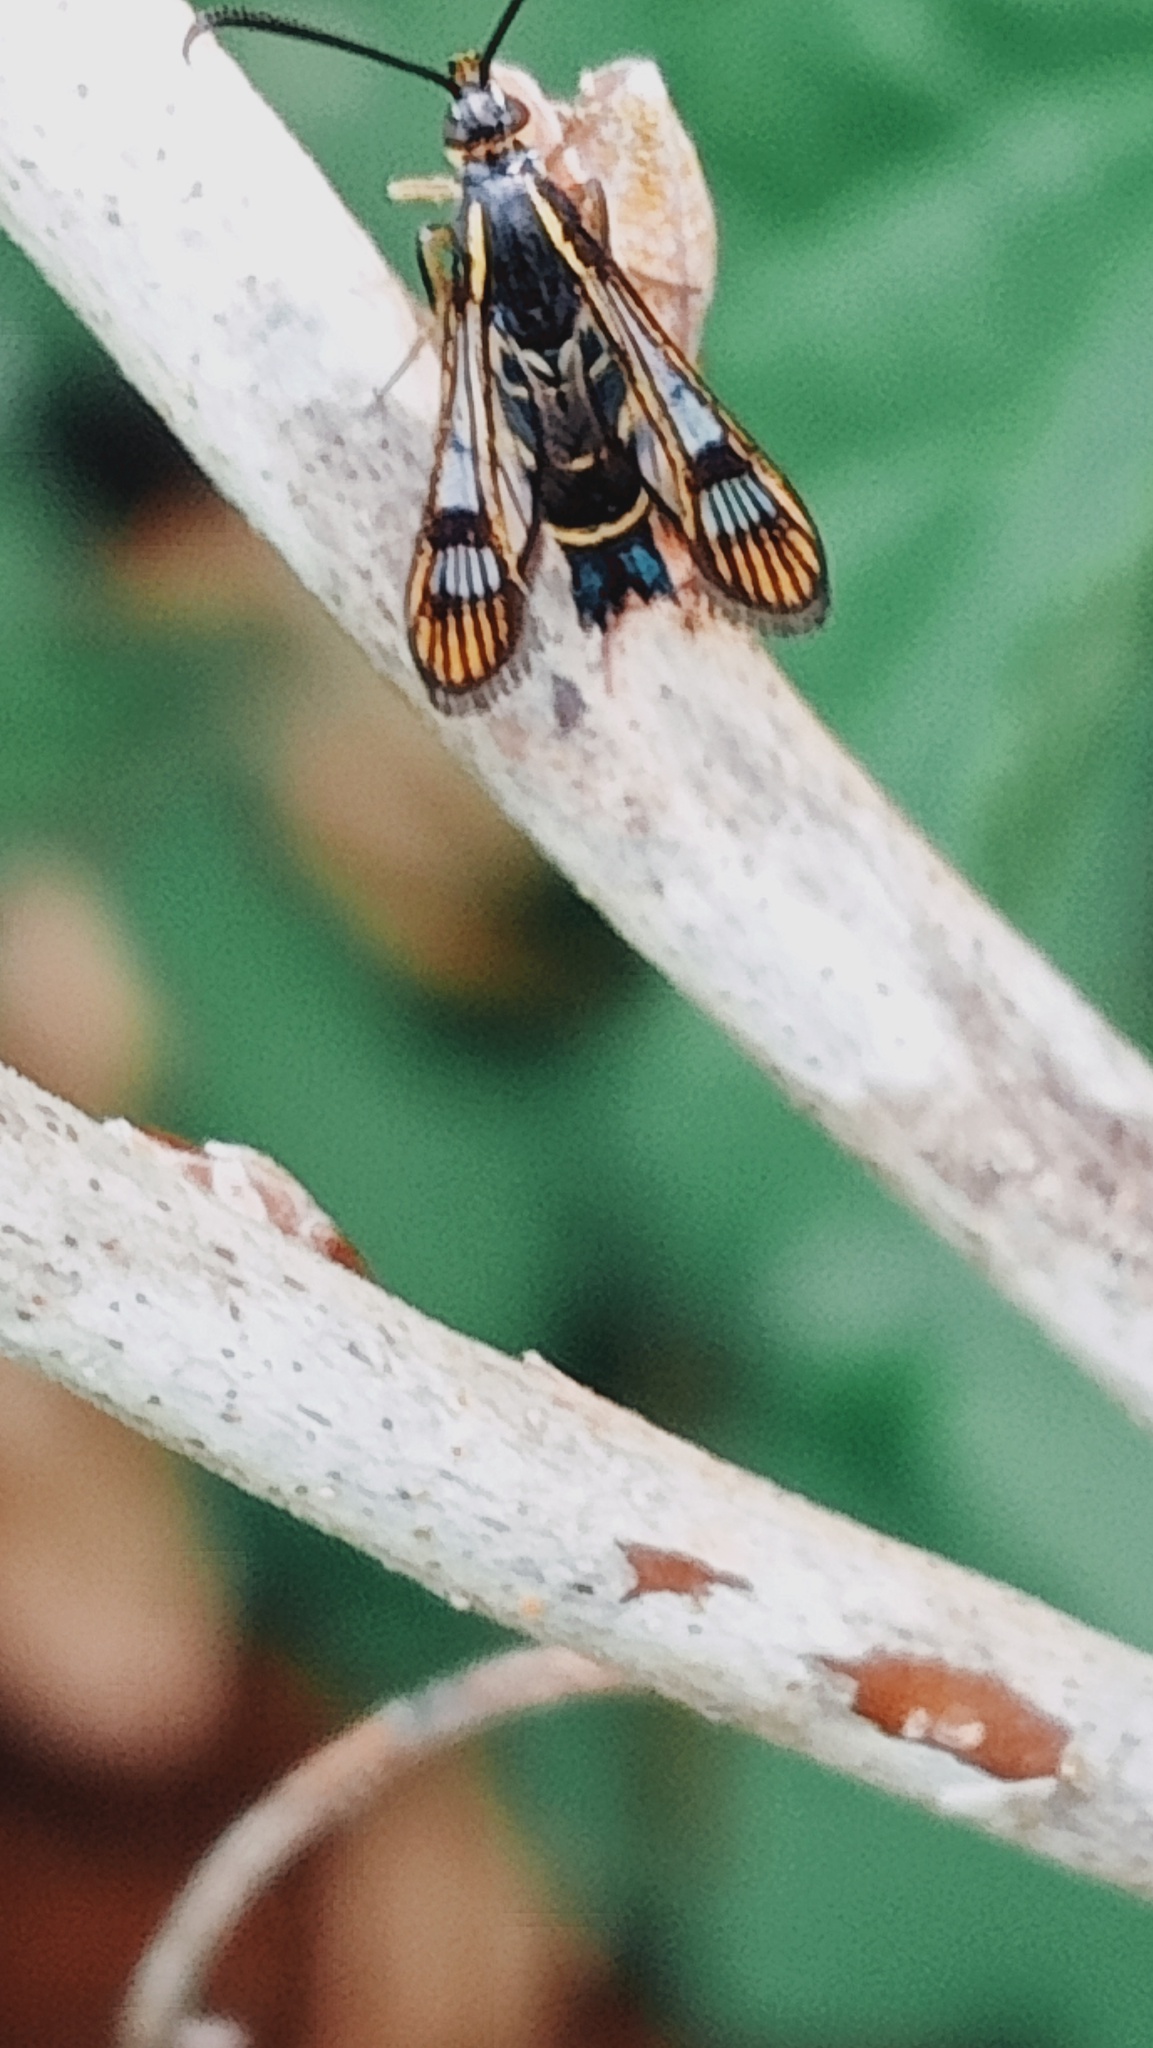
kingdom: Animalia
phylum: Arthropoda
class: Insecta
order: Lepidoptera
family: Sesiidae
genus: Synanthedon
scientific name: Synanthedon tipuliformis
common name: Currant clearwing
